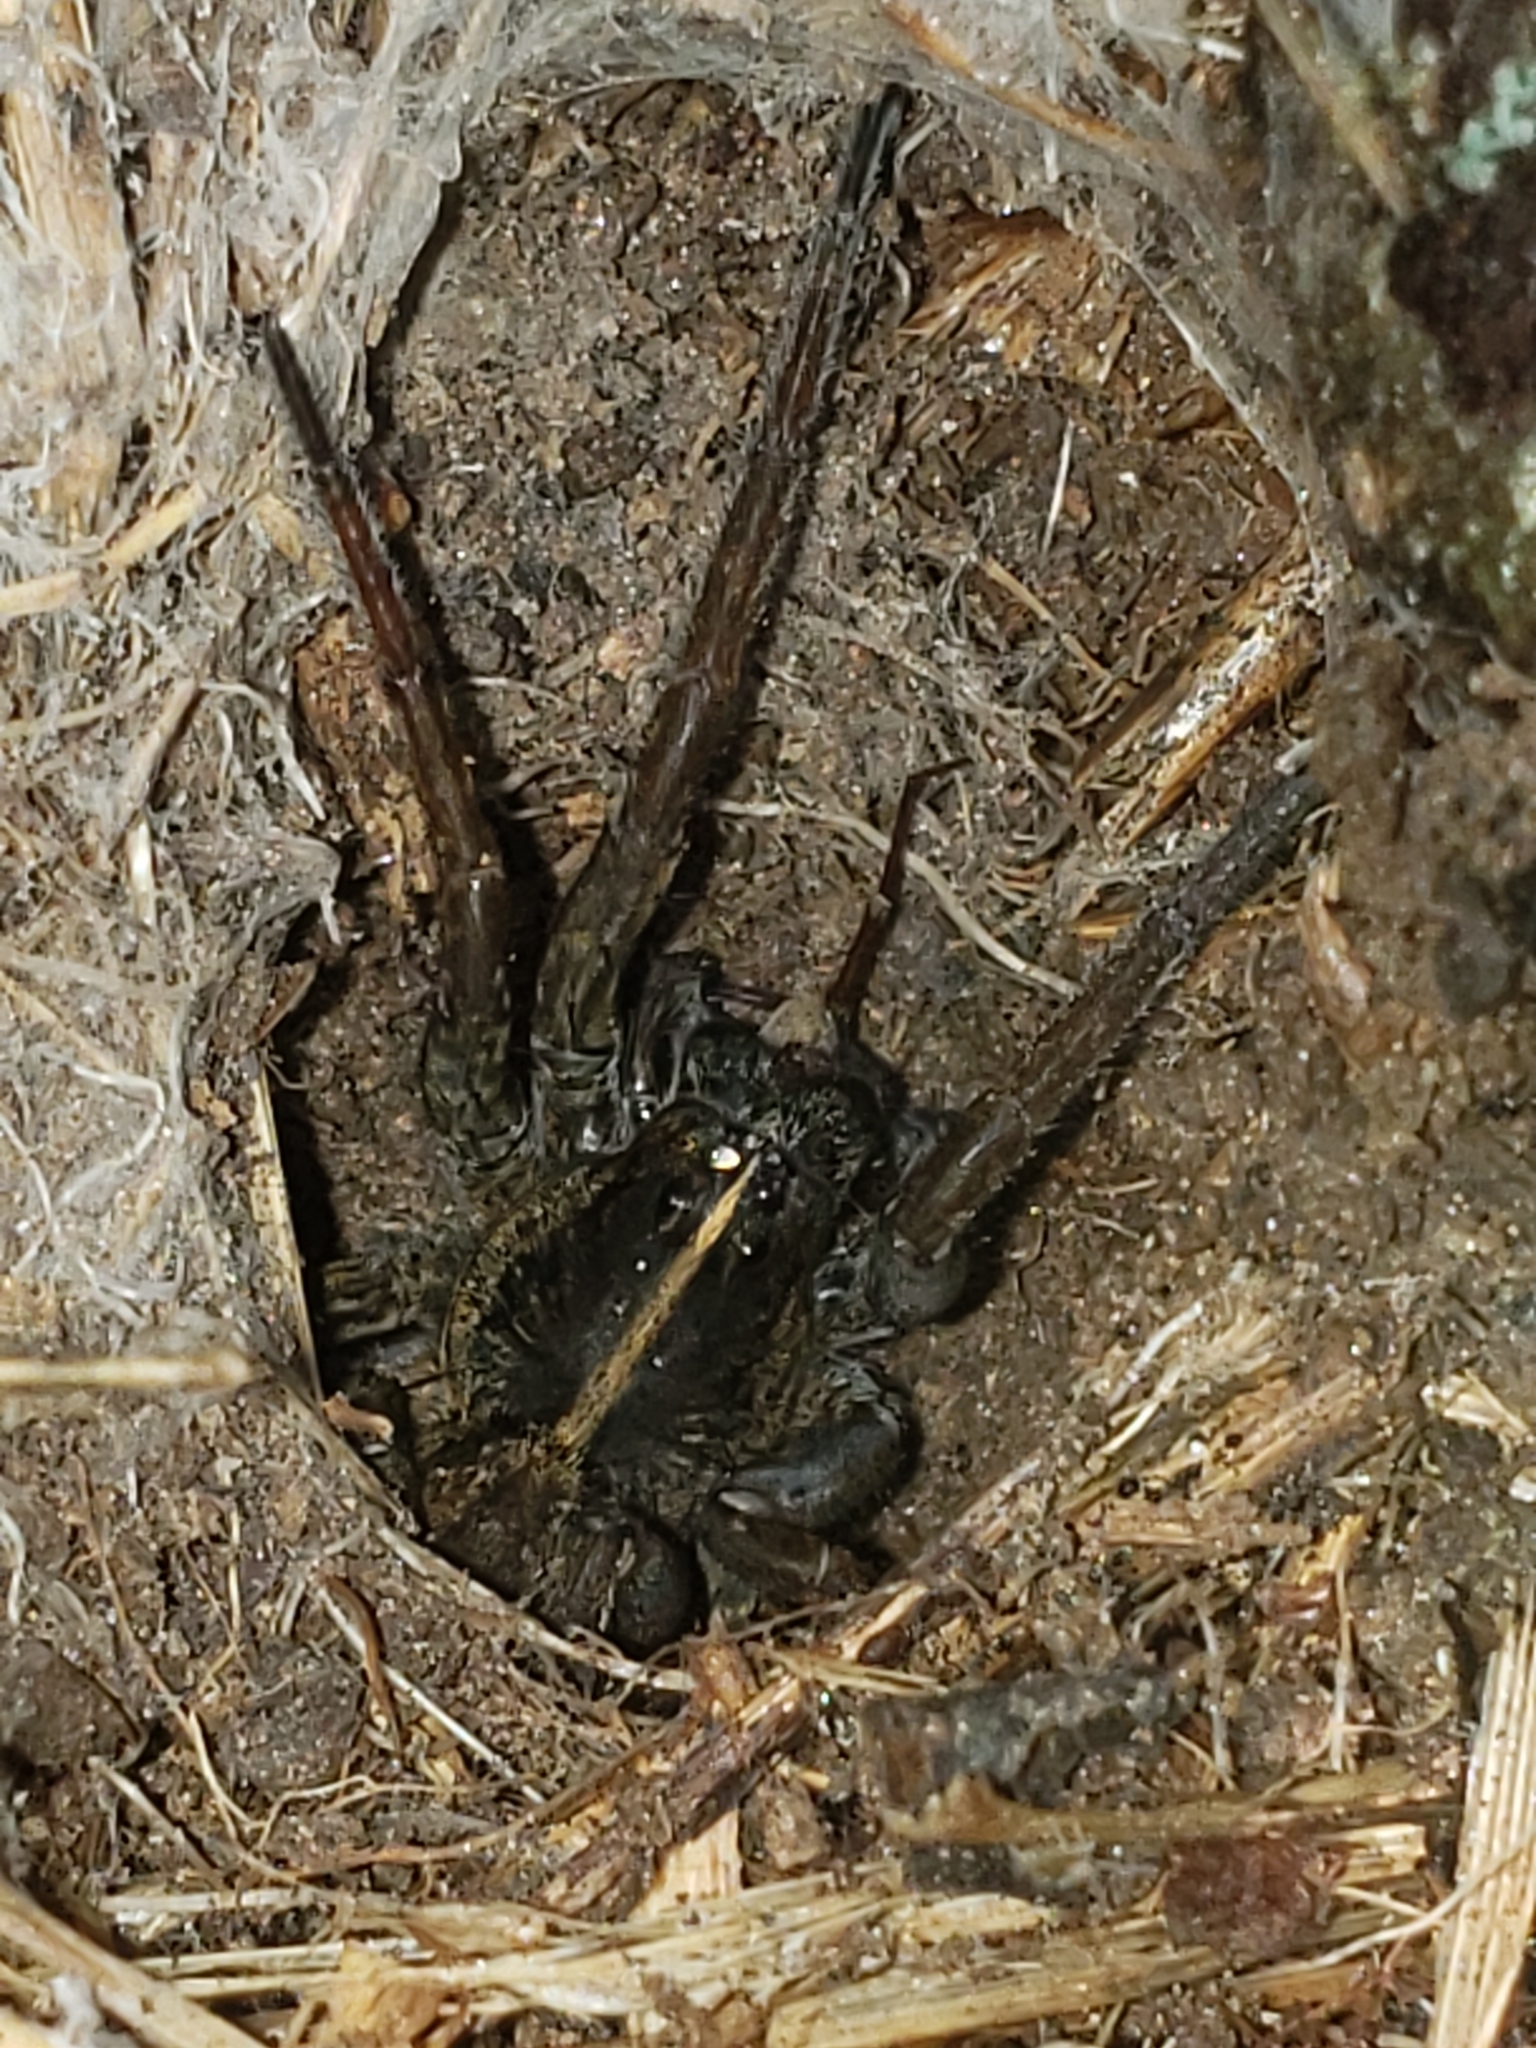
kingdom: Animalia
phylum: Arthropoda
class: Arachnida
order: Araneae
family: Lycosidae
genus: Tigrosa
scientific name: Tigrosa helluo
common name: Wetland giant wolf spider
